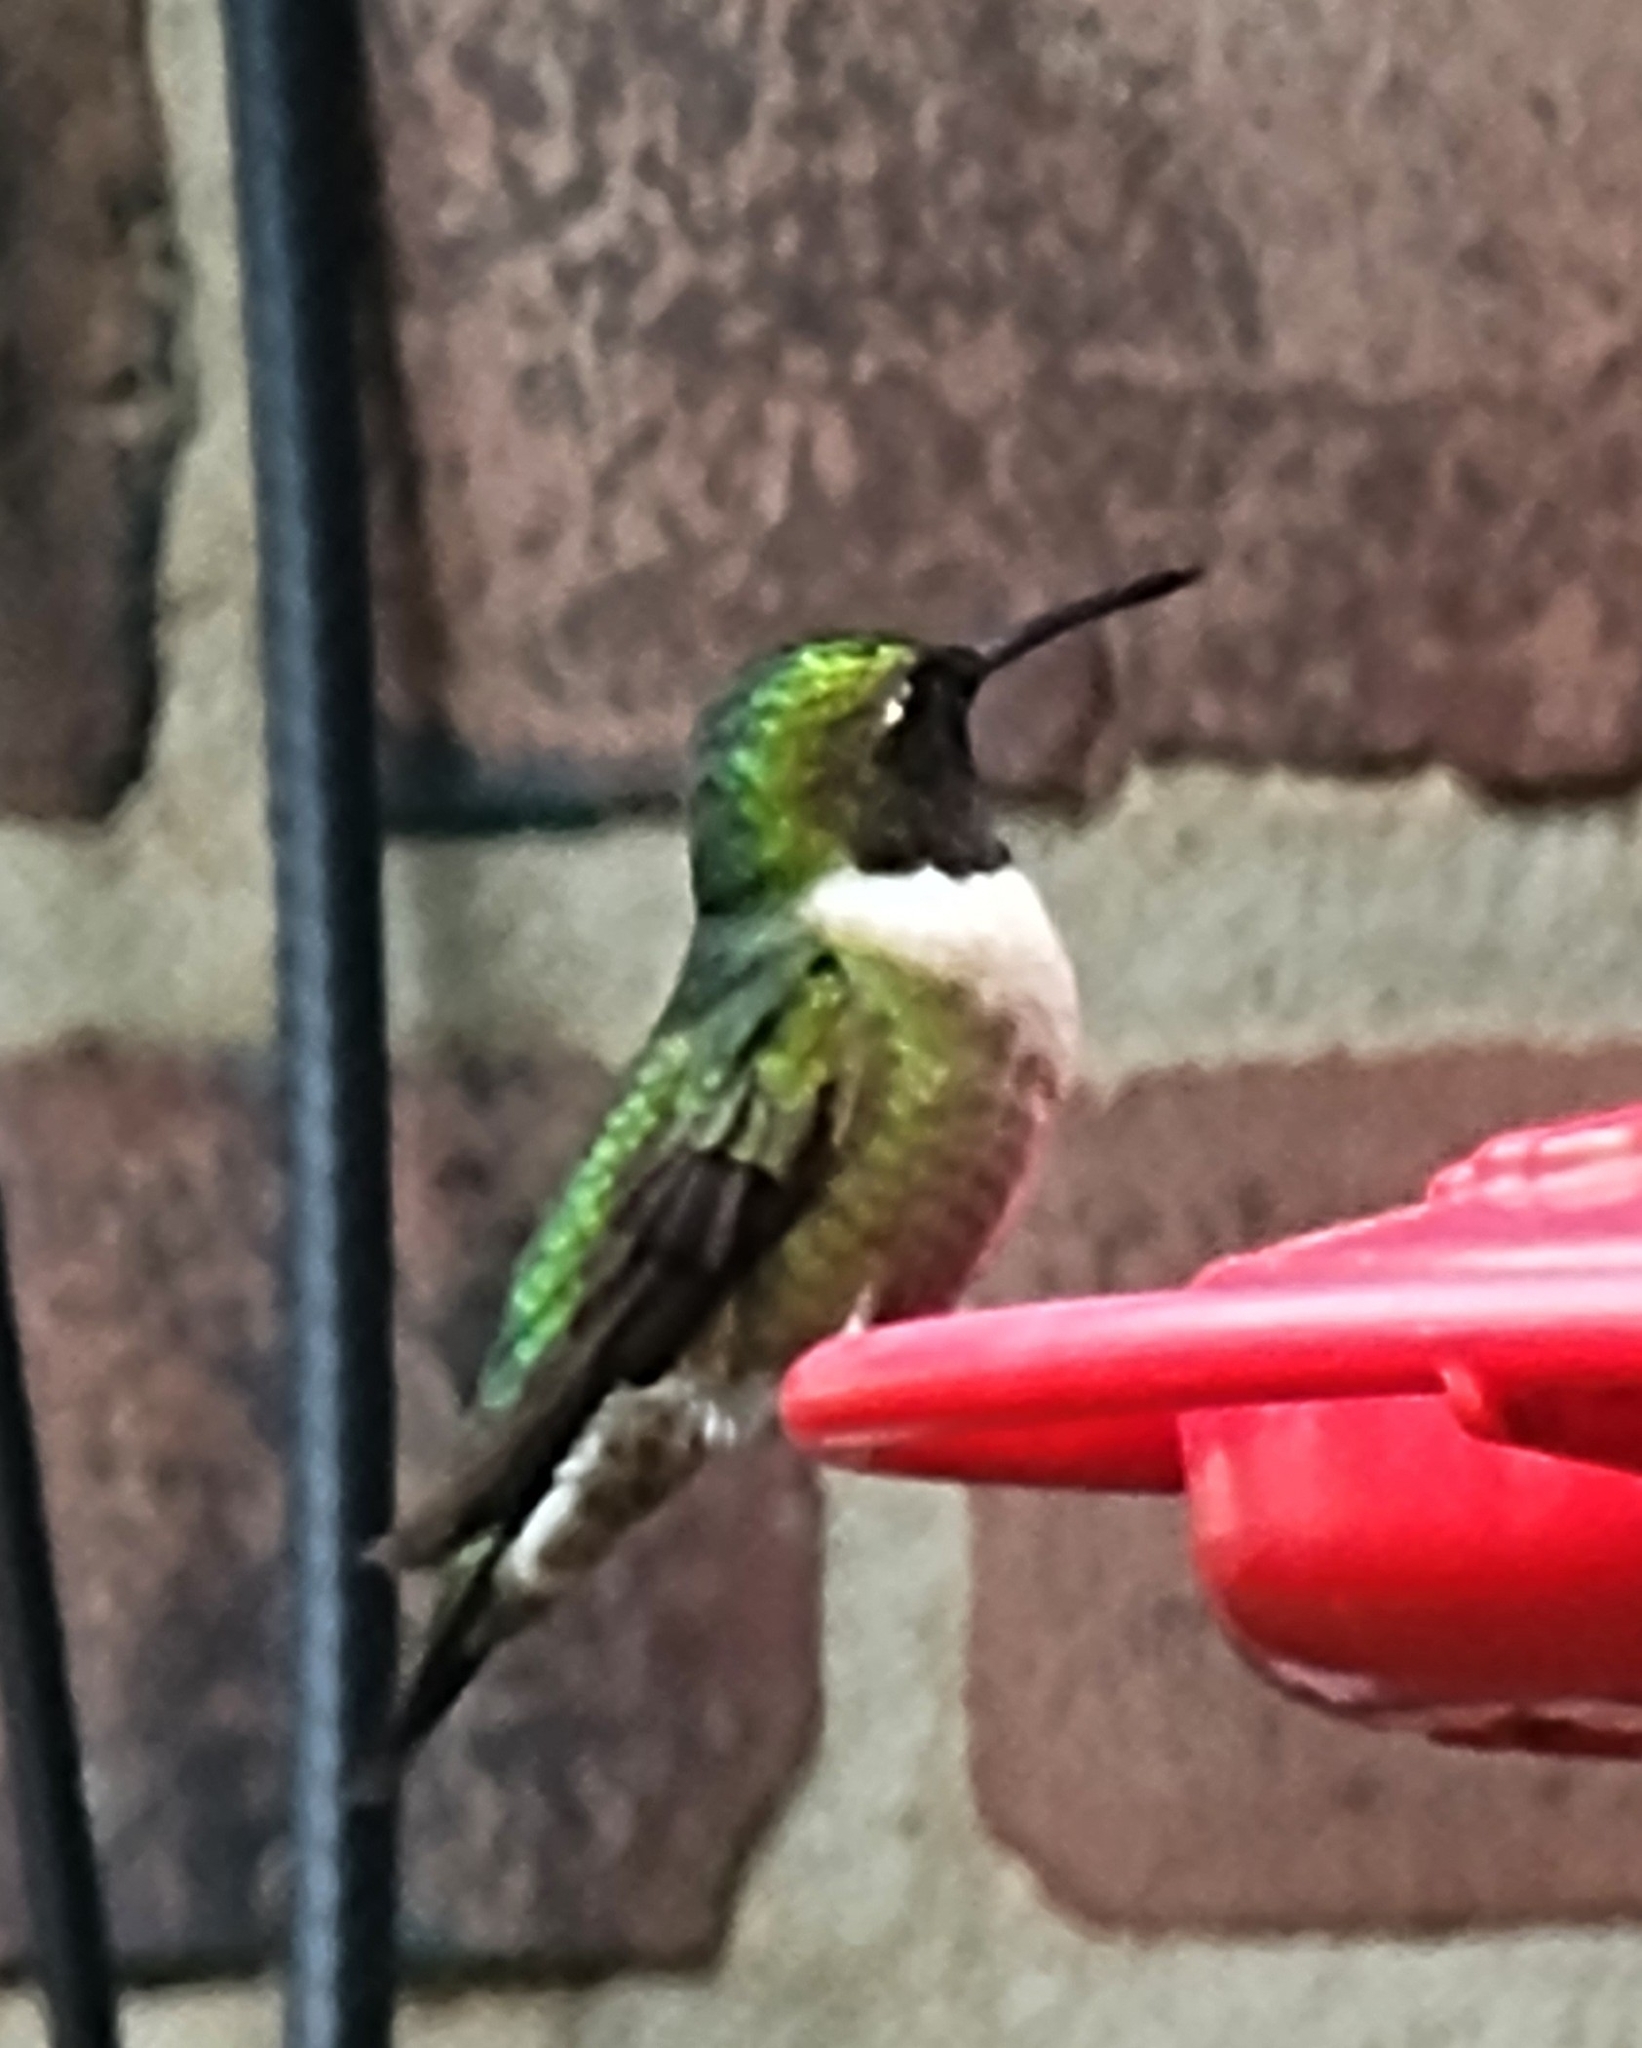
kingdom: Animalia
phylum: Chordata
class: Aves
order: Apodiformes
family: Trochilidae
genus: Archilochus
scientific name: Archilochus colubris
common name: Ruby-throated hummingbird
